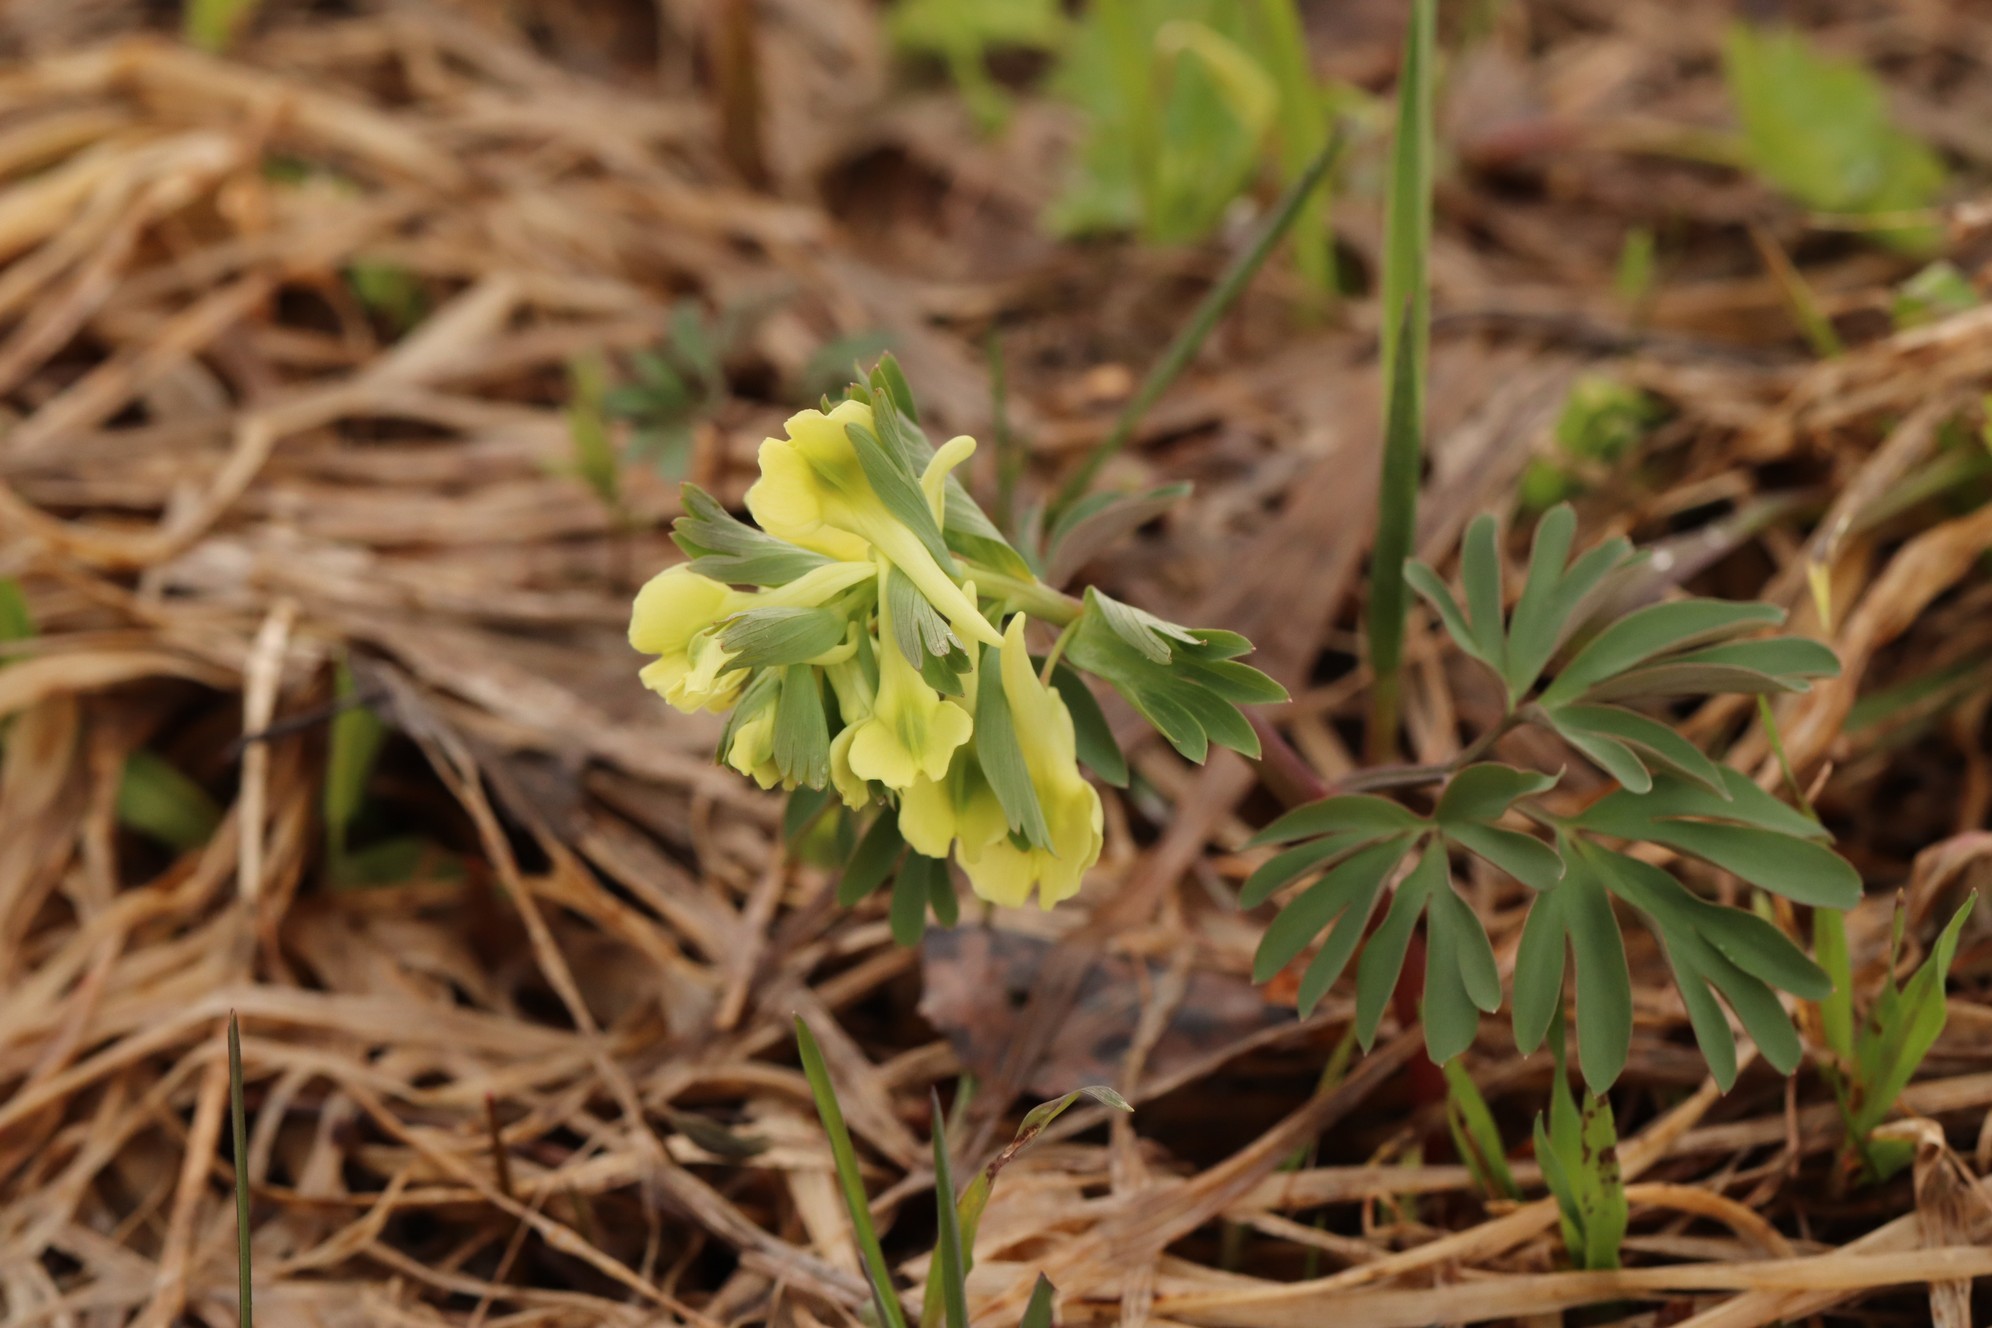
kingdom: Plantae
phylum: Tracheophyta
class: Magnoliopsida
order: Ranunculales
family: Papaveraceae
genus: Corydalis
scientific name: Corydalis bracteata
